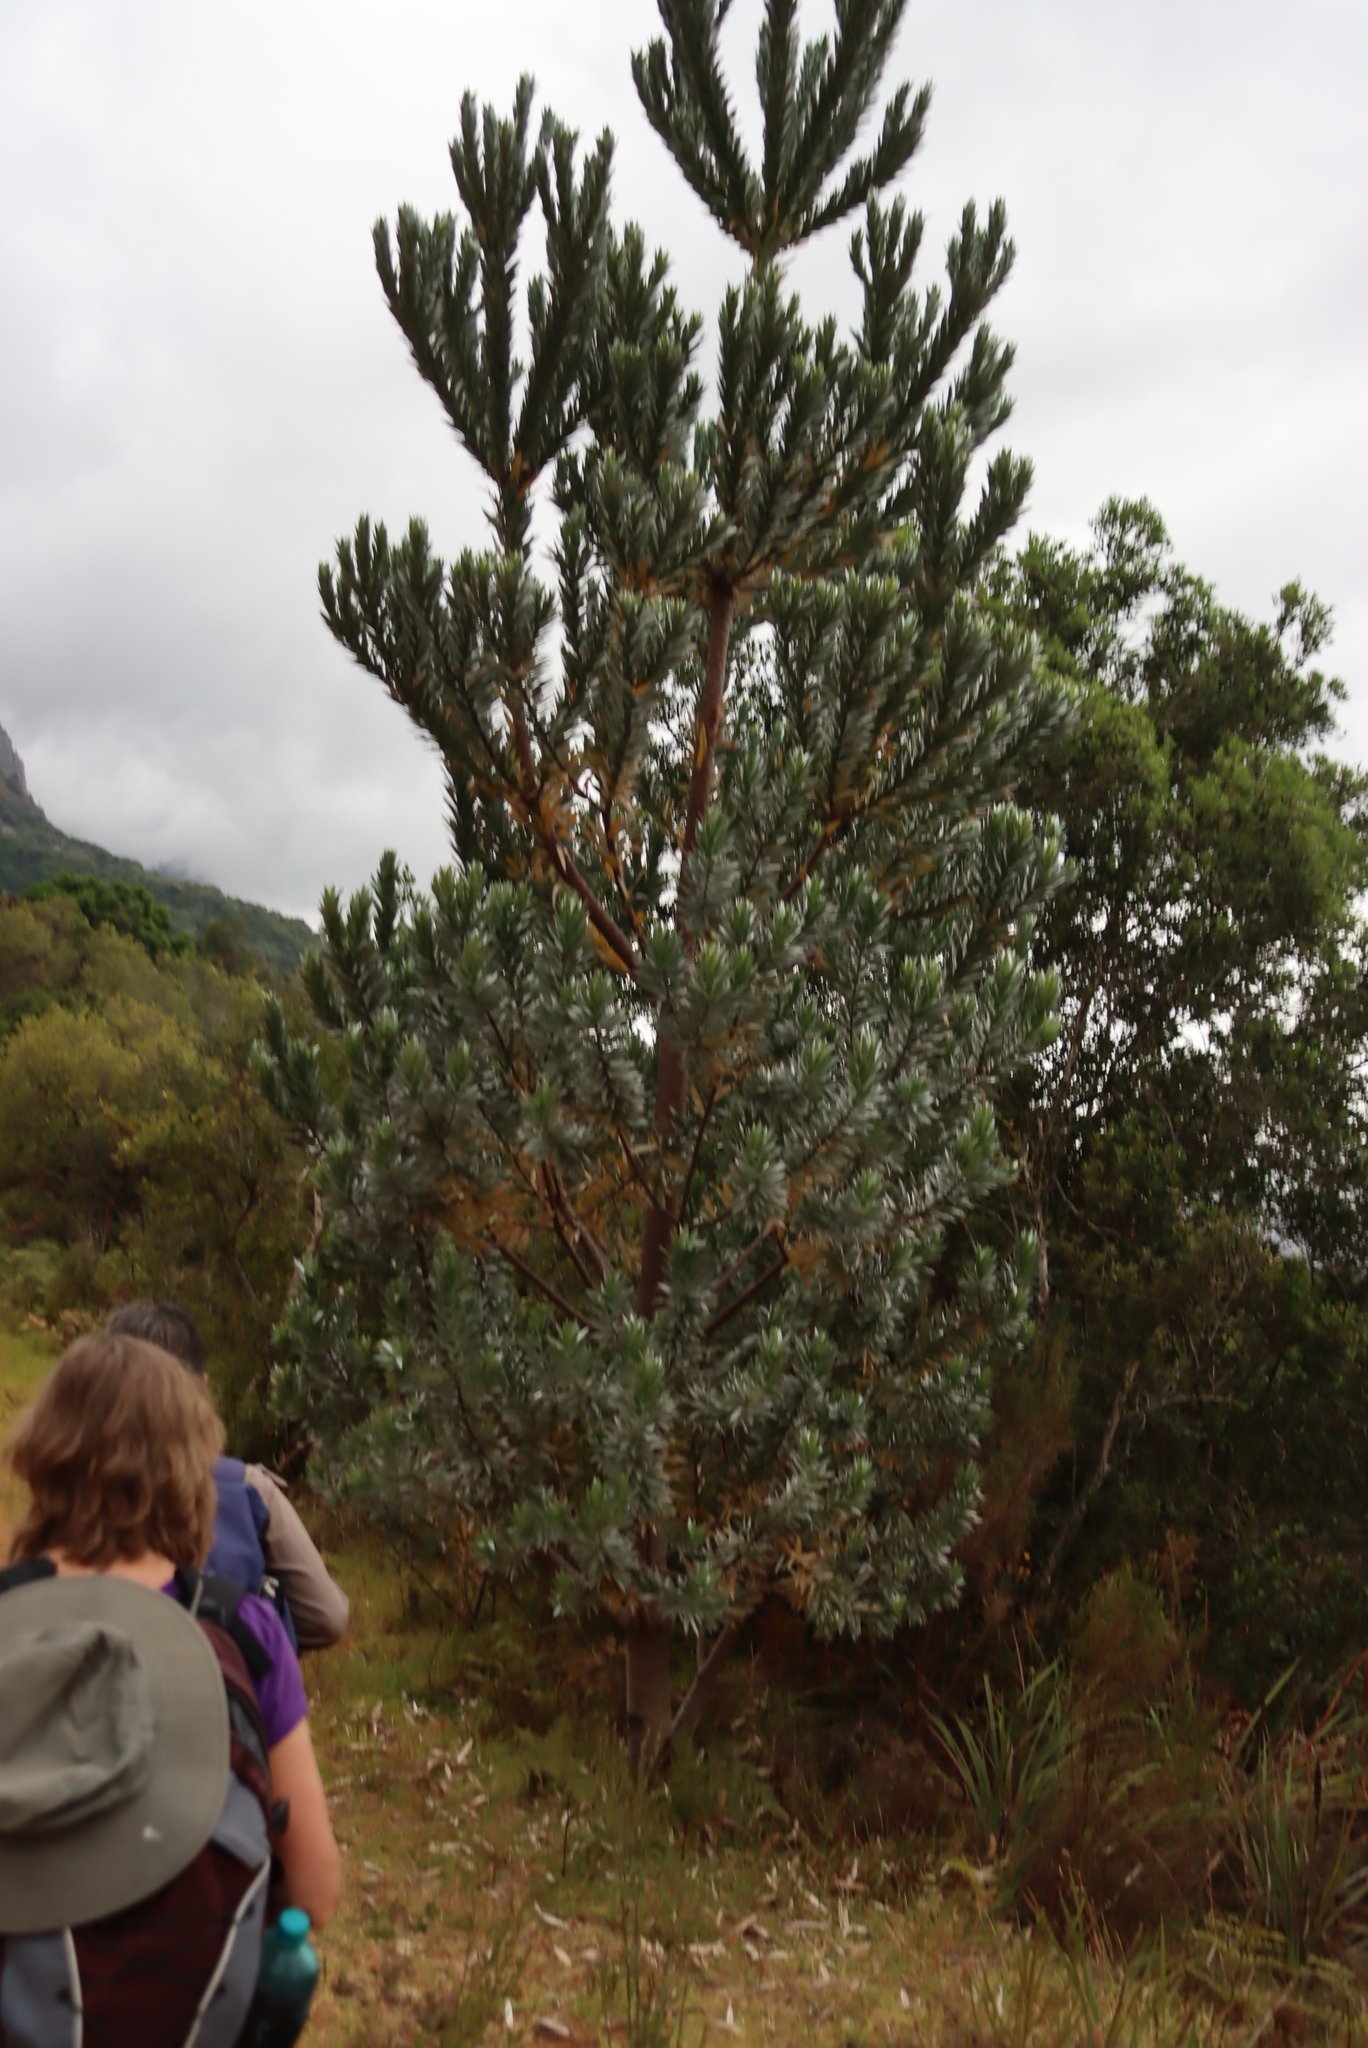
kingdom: Plantae
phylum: Tracheophyta
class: Magnoliopsida
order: Proteales
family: Proteaceae
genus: Leucadendron
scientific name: Leucadendron argenteum
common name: Cape silver tree
